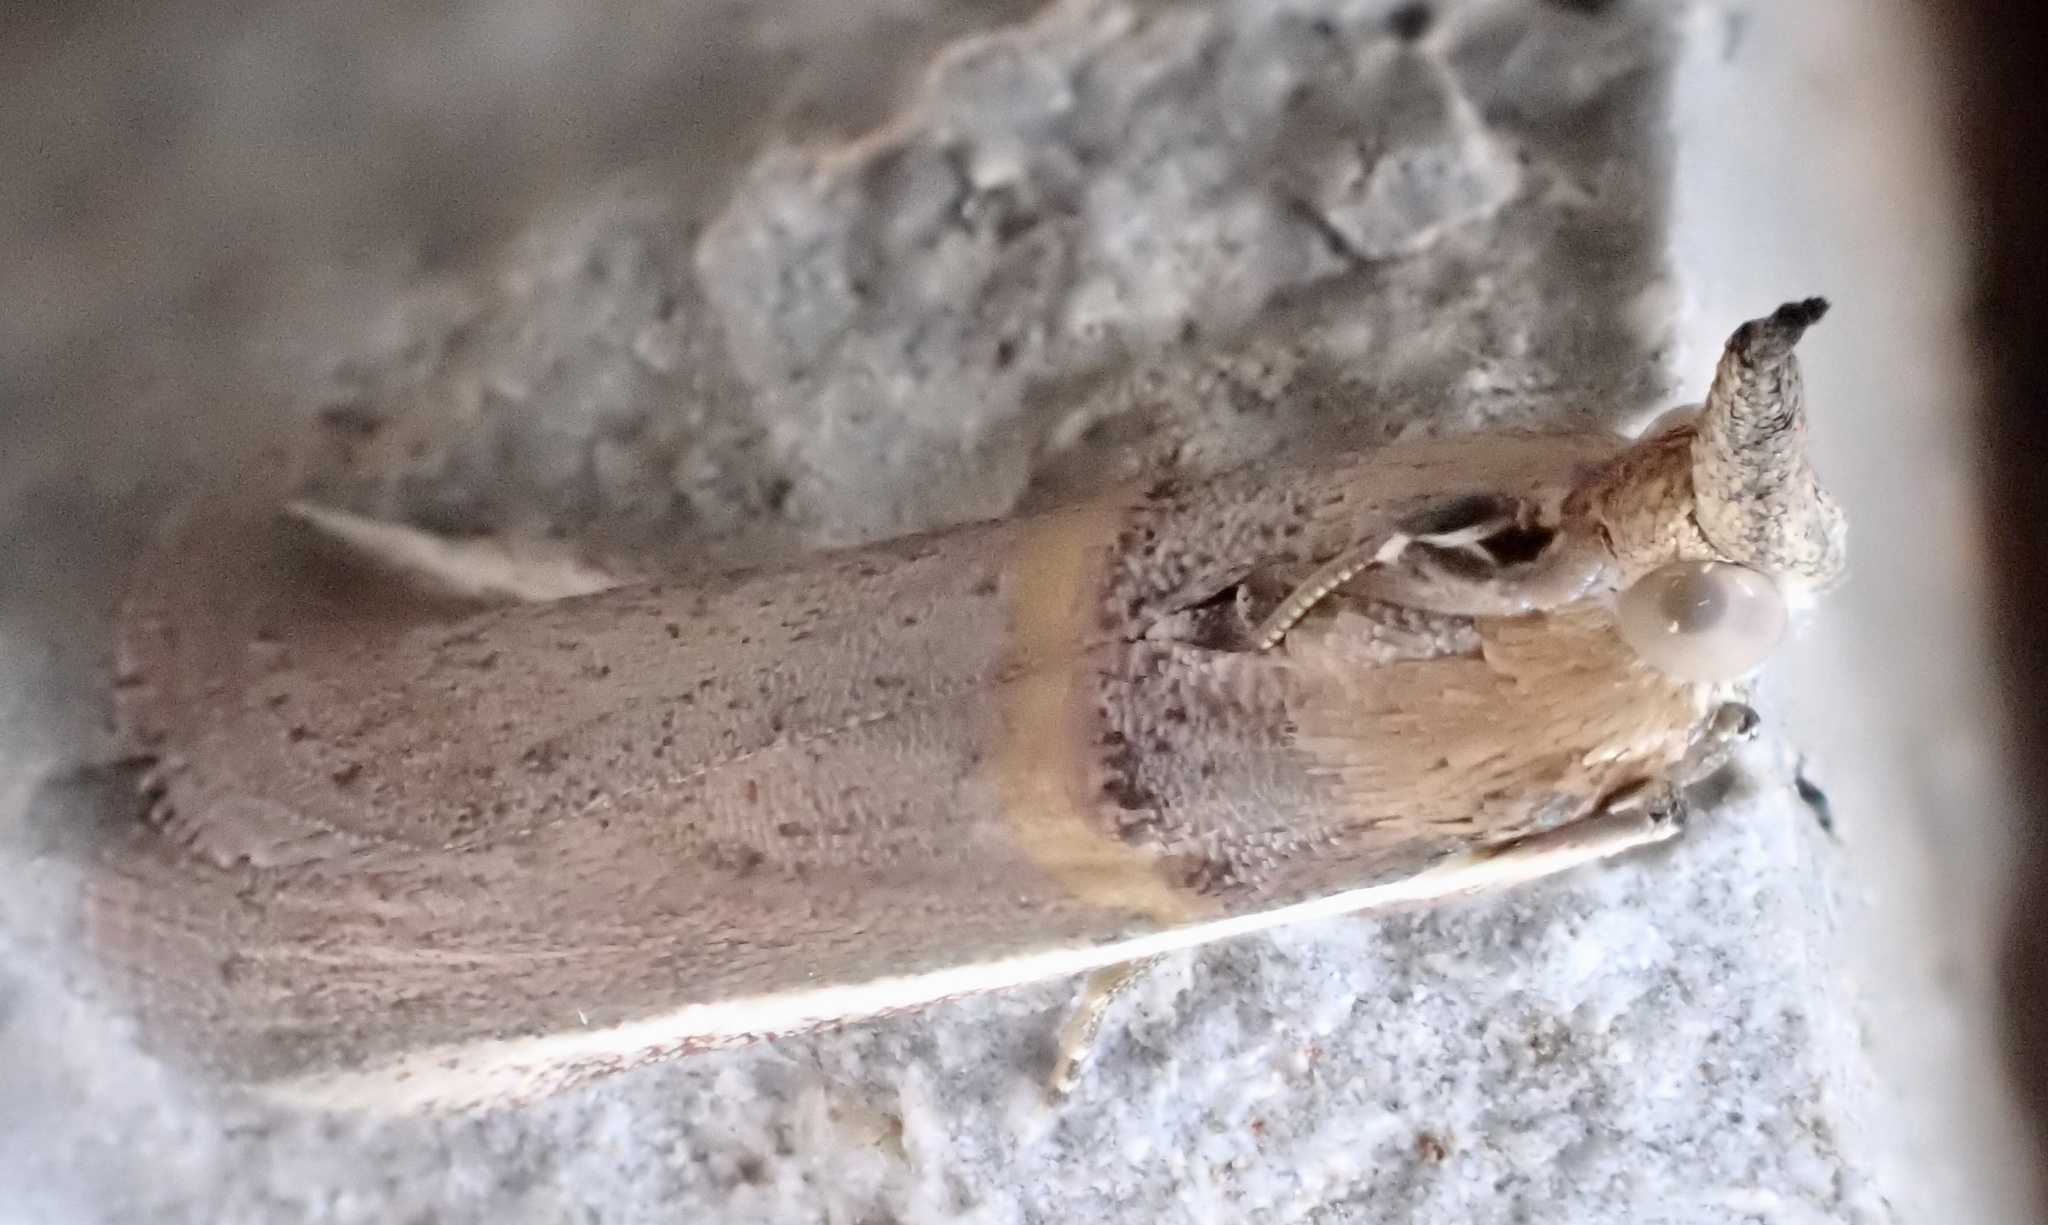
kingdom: Animalia
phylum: Arthropoda
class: Insecta
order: Lepidoptera
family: Pyralidae
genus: Etiella
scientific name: Etiella zinckenella
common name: Gold-banded etiella moth
